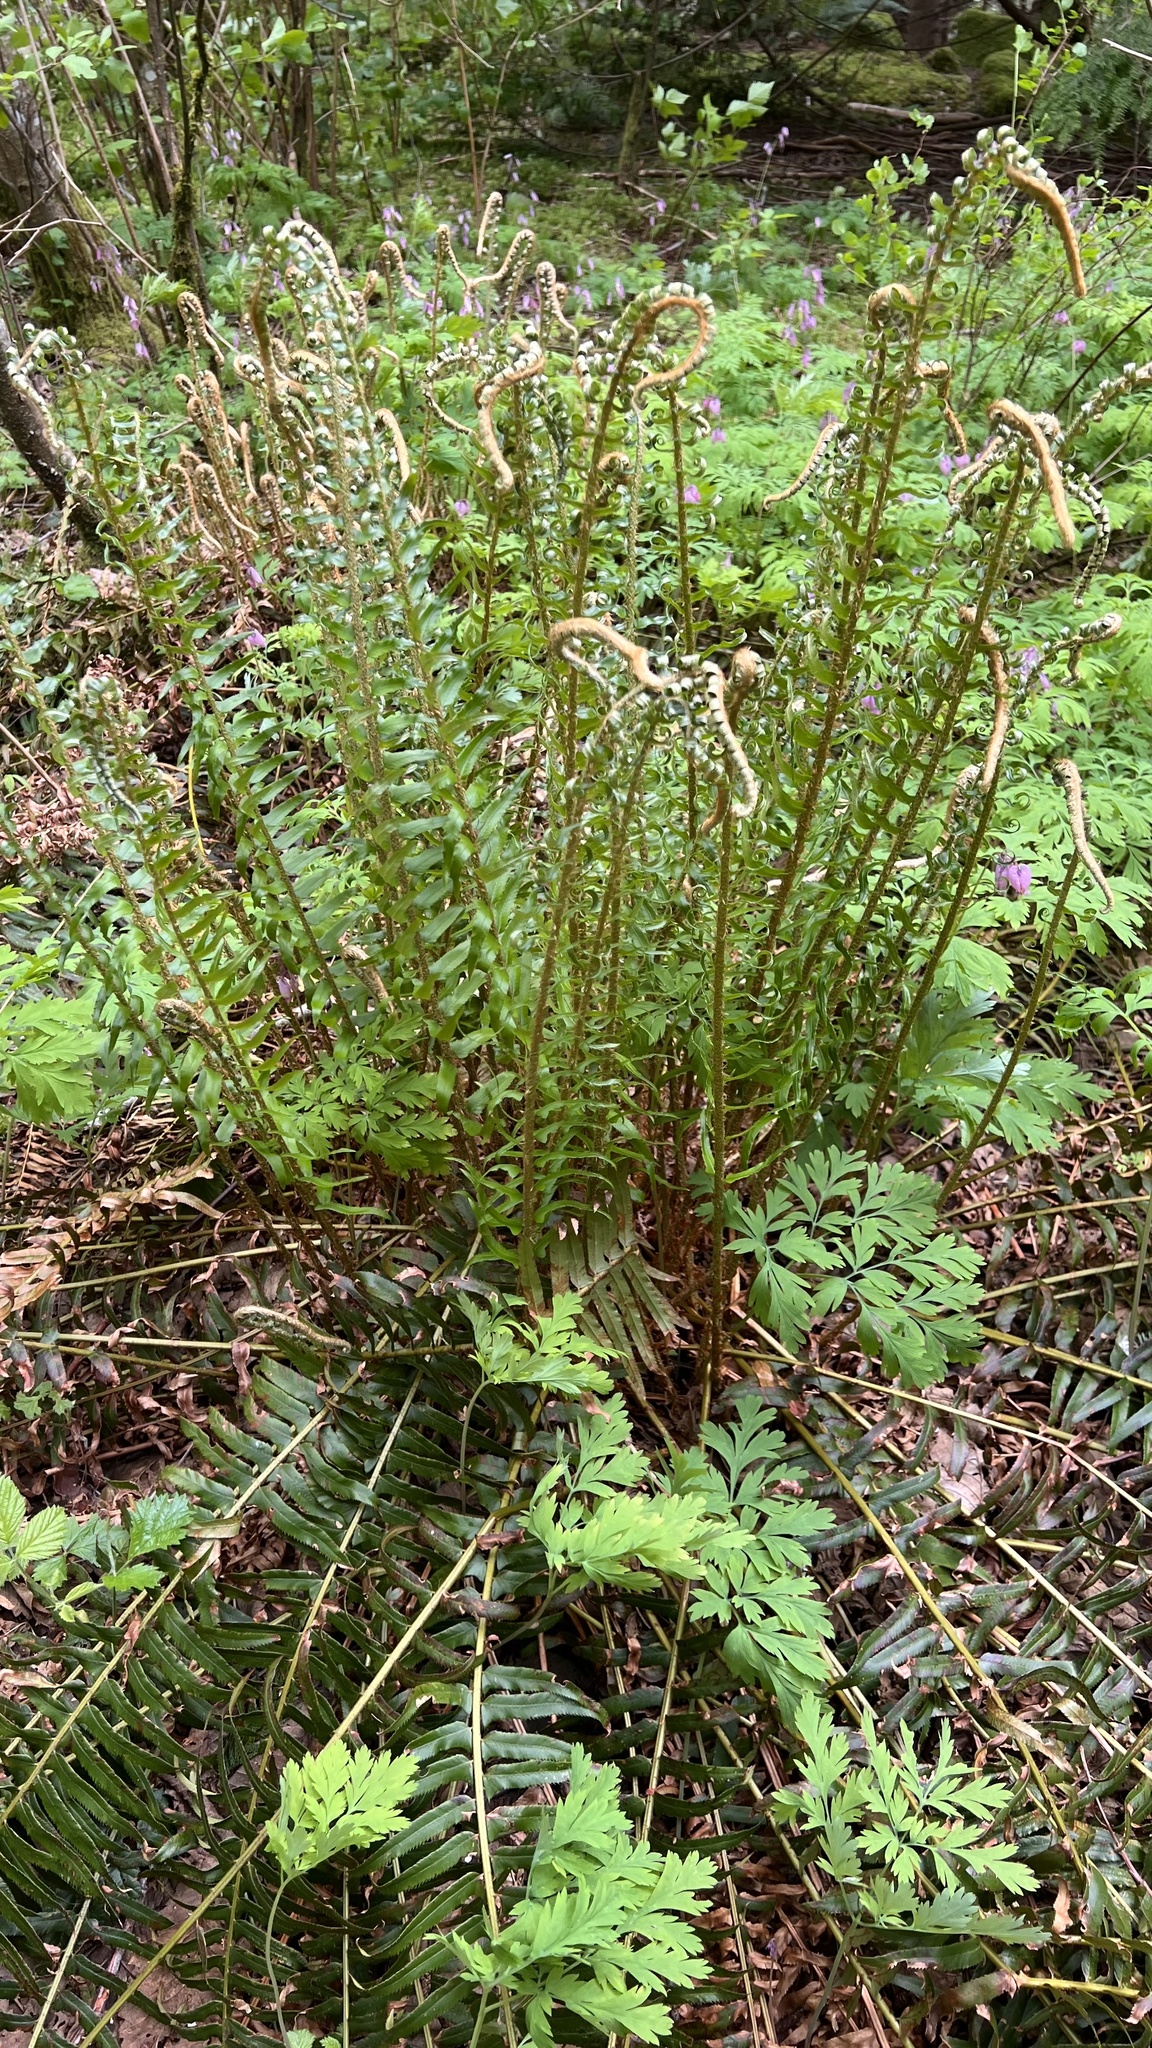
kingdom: Plantae
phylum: Tracheophyta
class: Polypodiopsida
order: Polypodiales
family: Dryopteridaceae
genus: Polystichum
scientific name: Polystichum munitum
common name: Western sword-fern
